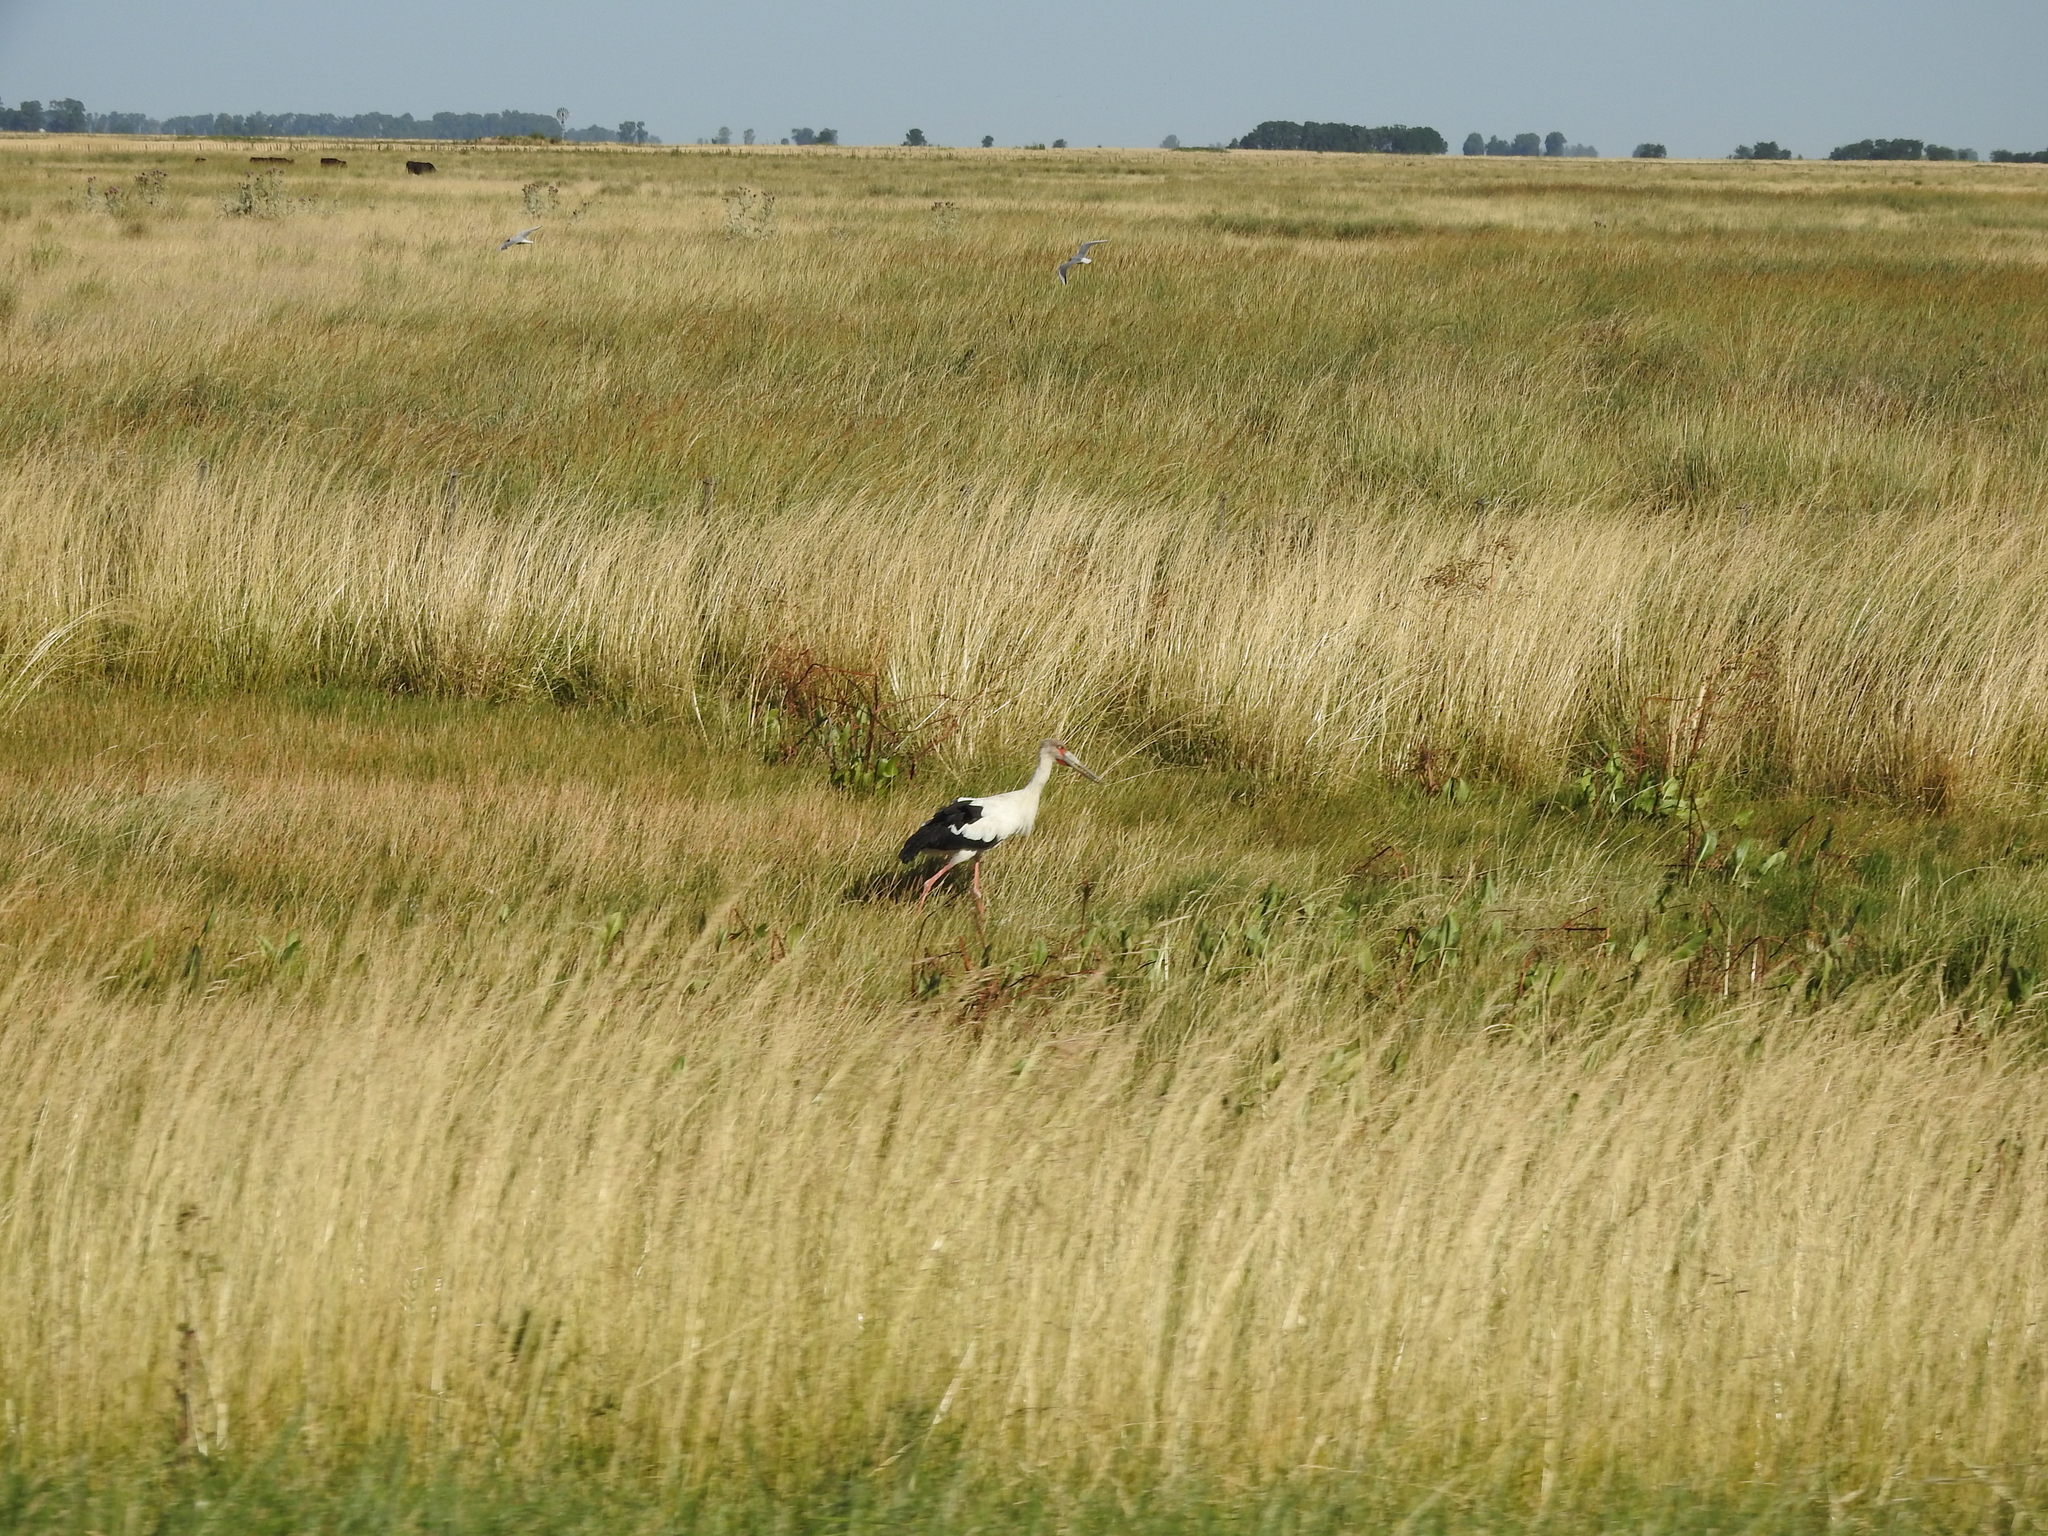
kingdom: Animalia
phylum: Chordata
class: Aves
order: Ciconiiformes
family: Ciconiidae
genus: Ciconia
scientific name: Ciconia maguari
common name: Maguari stork
